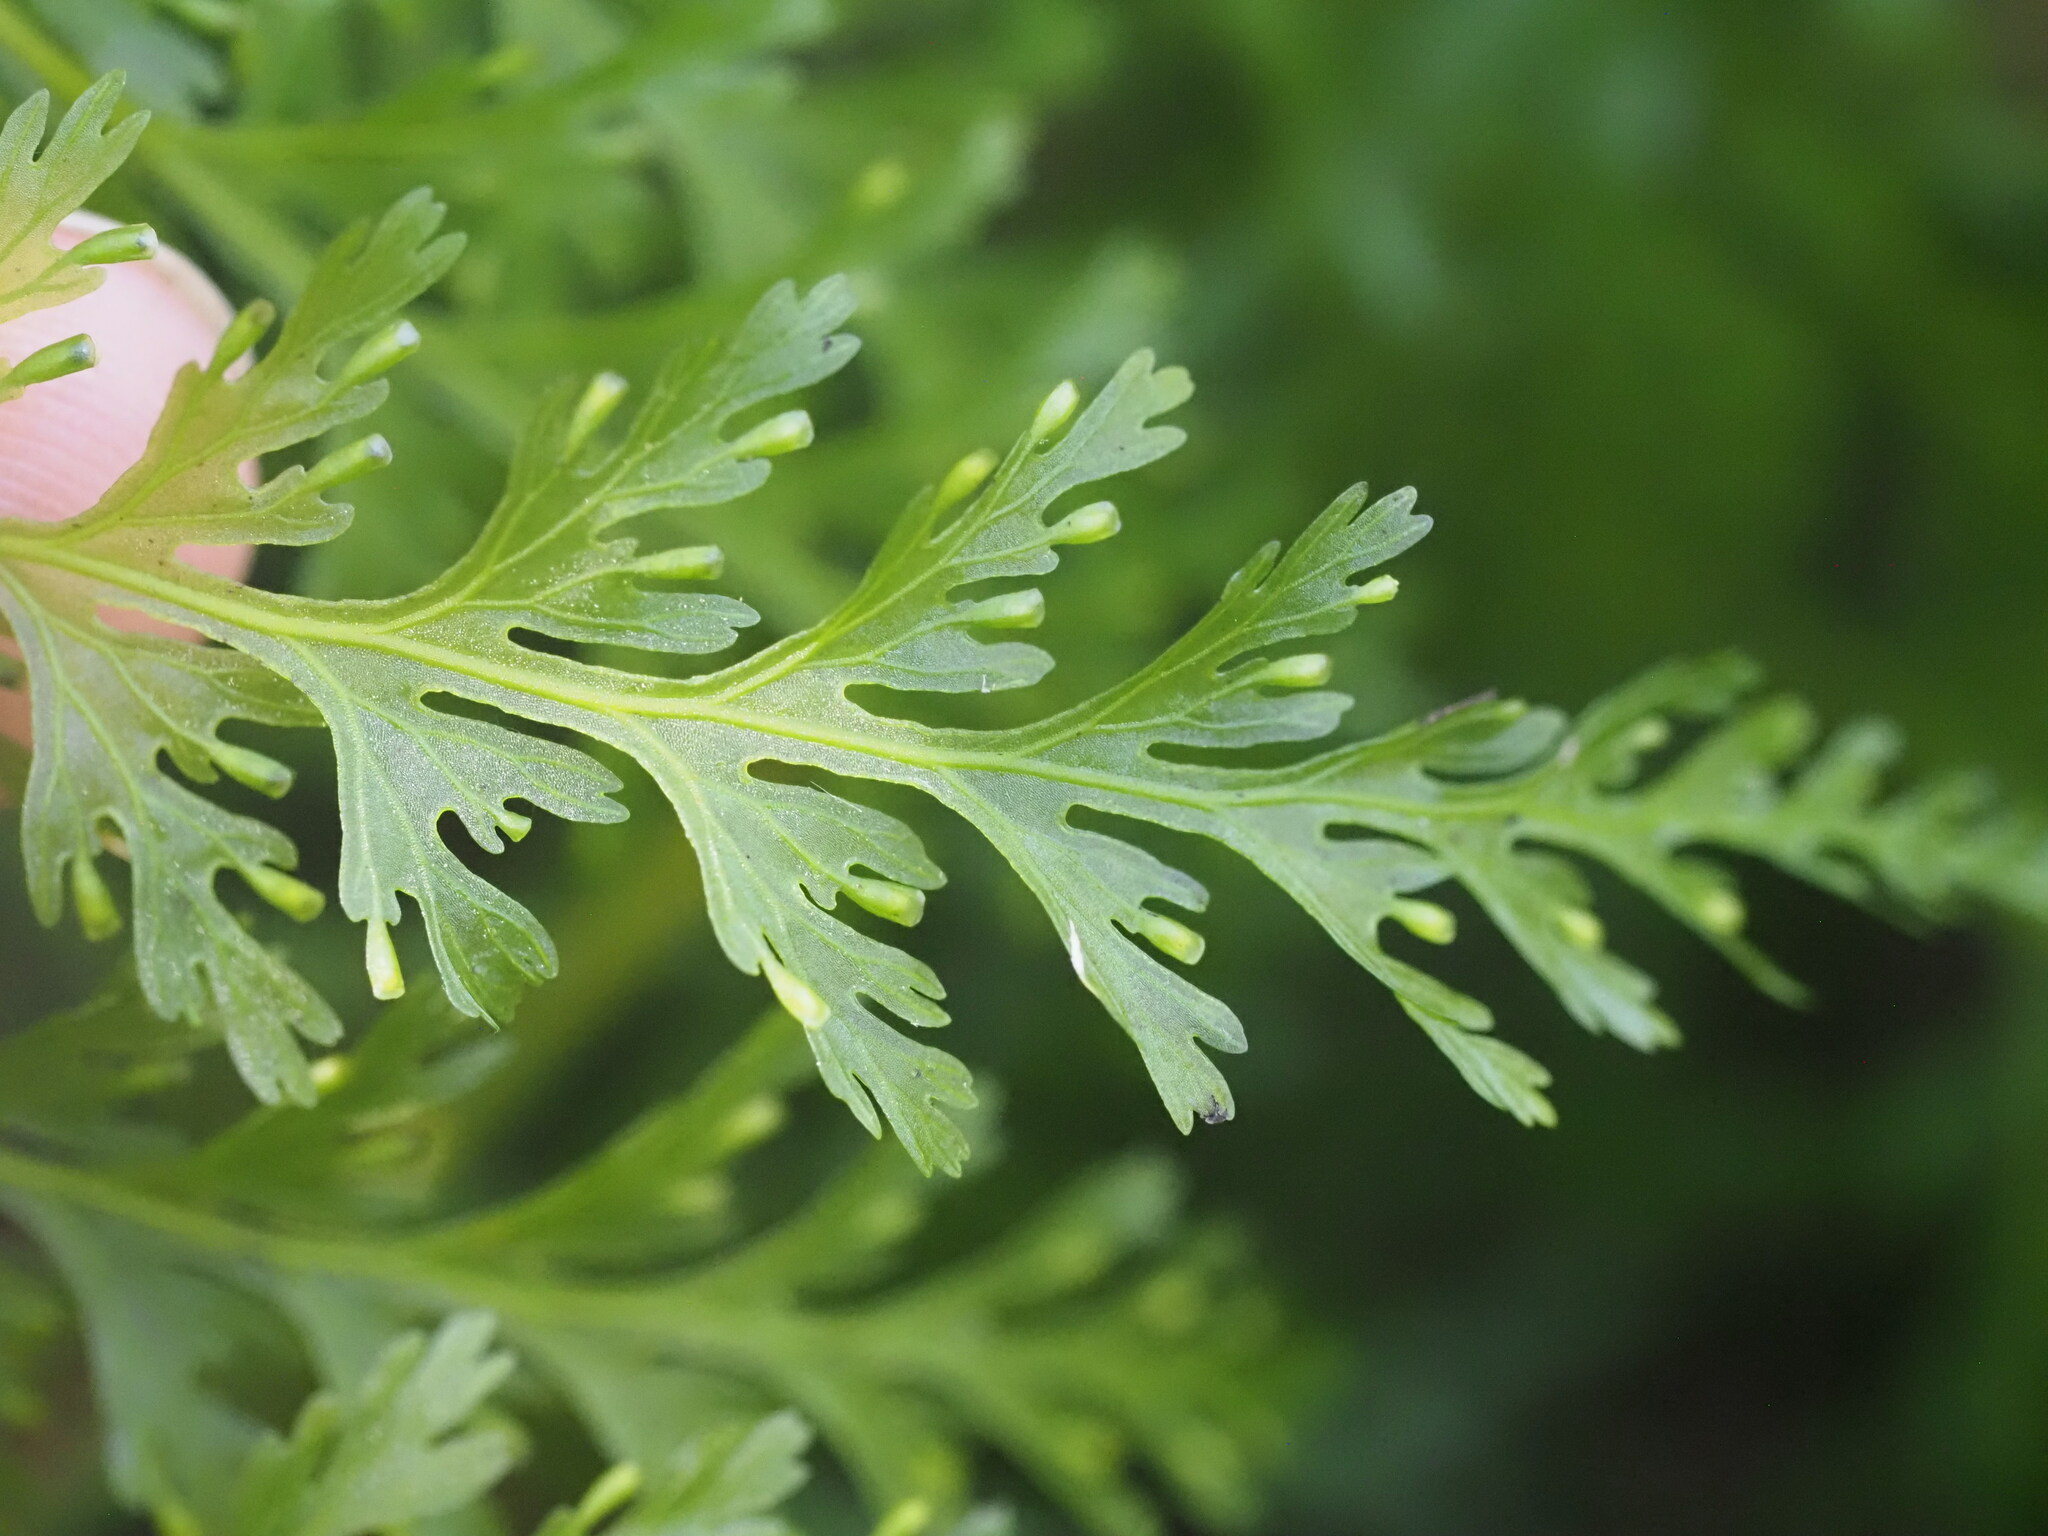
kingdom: Plantae
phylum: Tracheophyta
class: Polypodiopsida
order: Hymenophyllales
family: Hymenophyllaceae
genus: Vandenboschia
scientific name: Vandenboschia tubiflora
